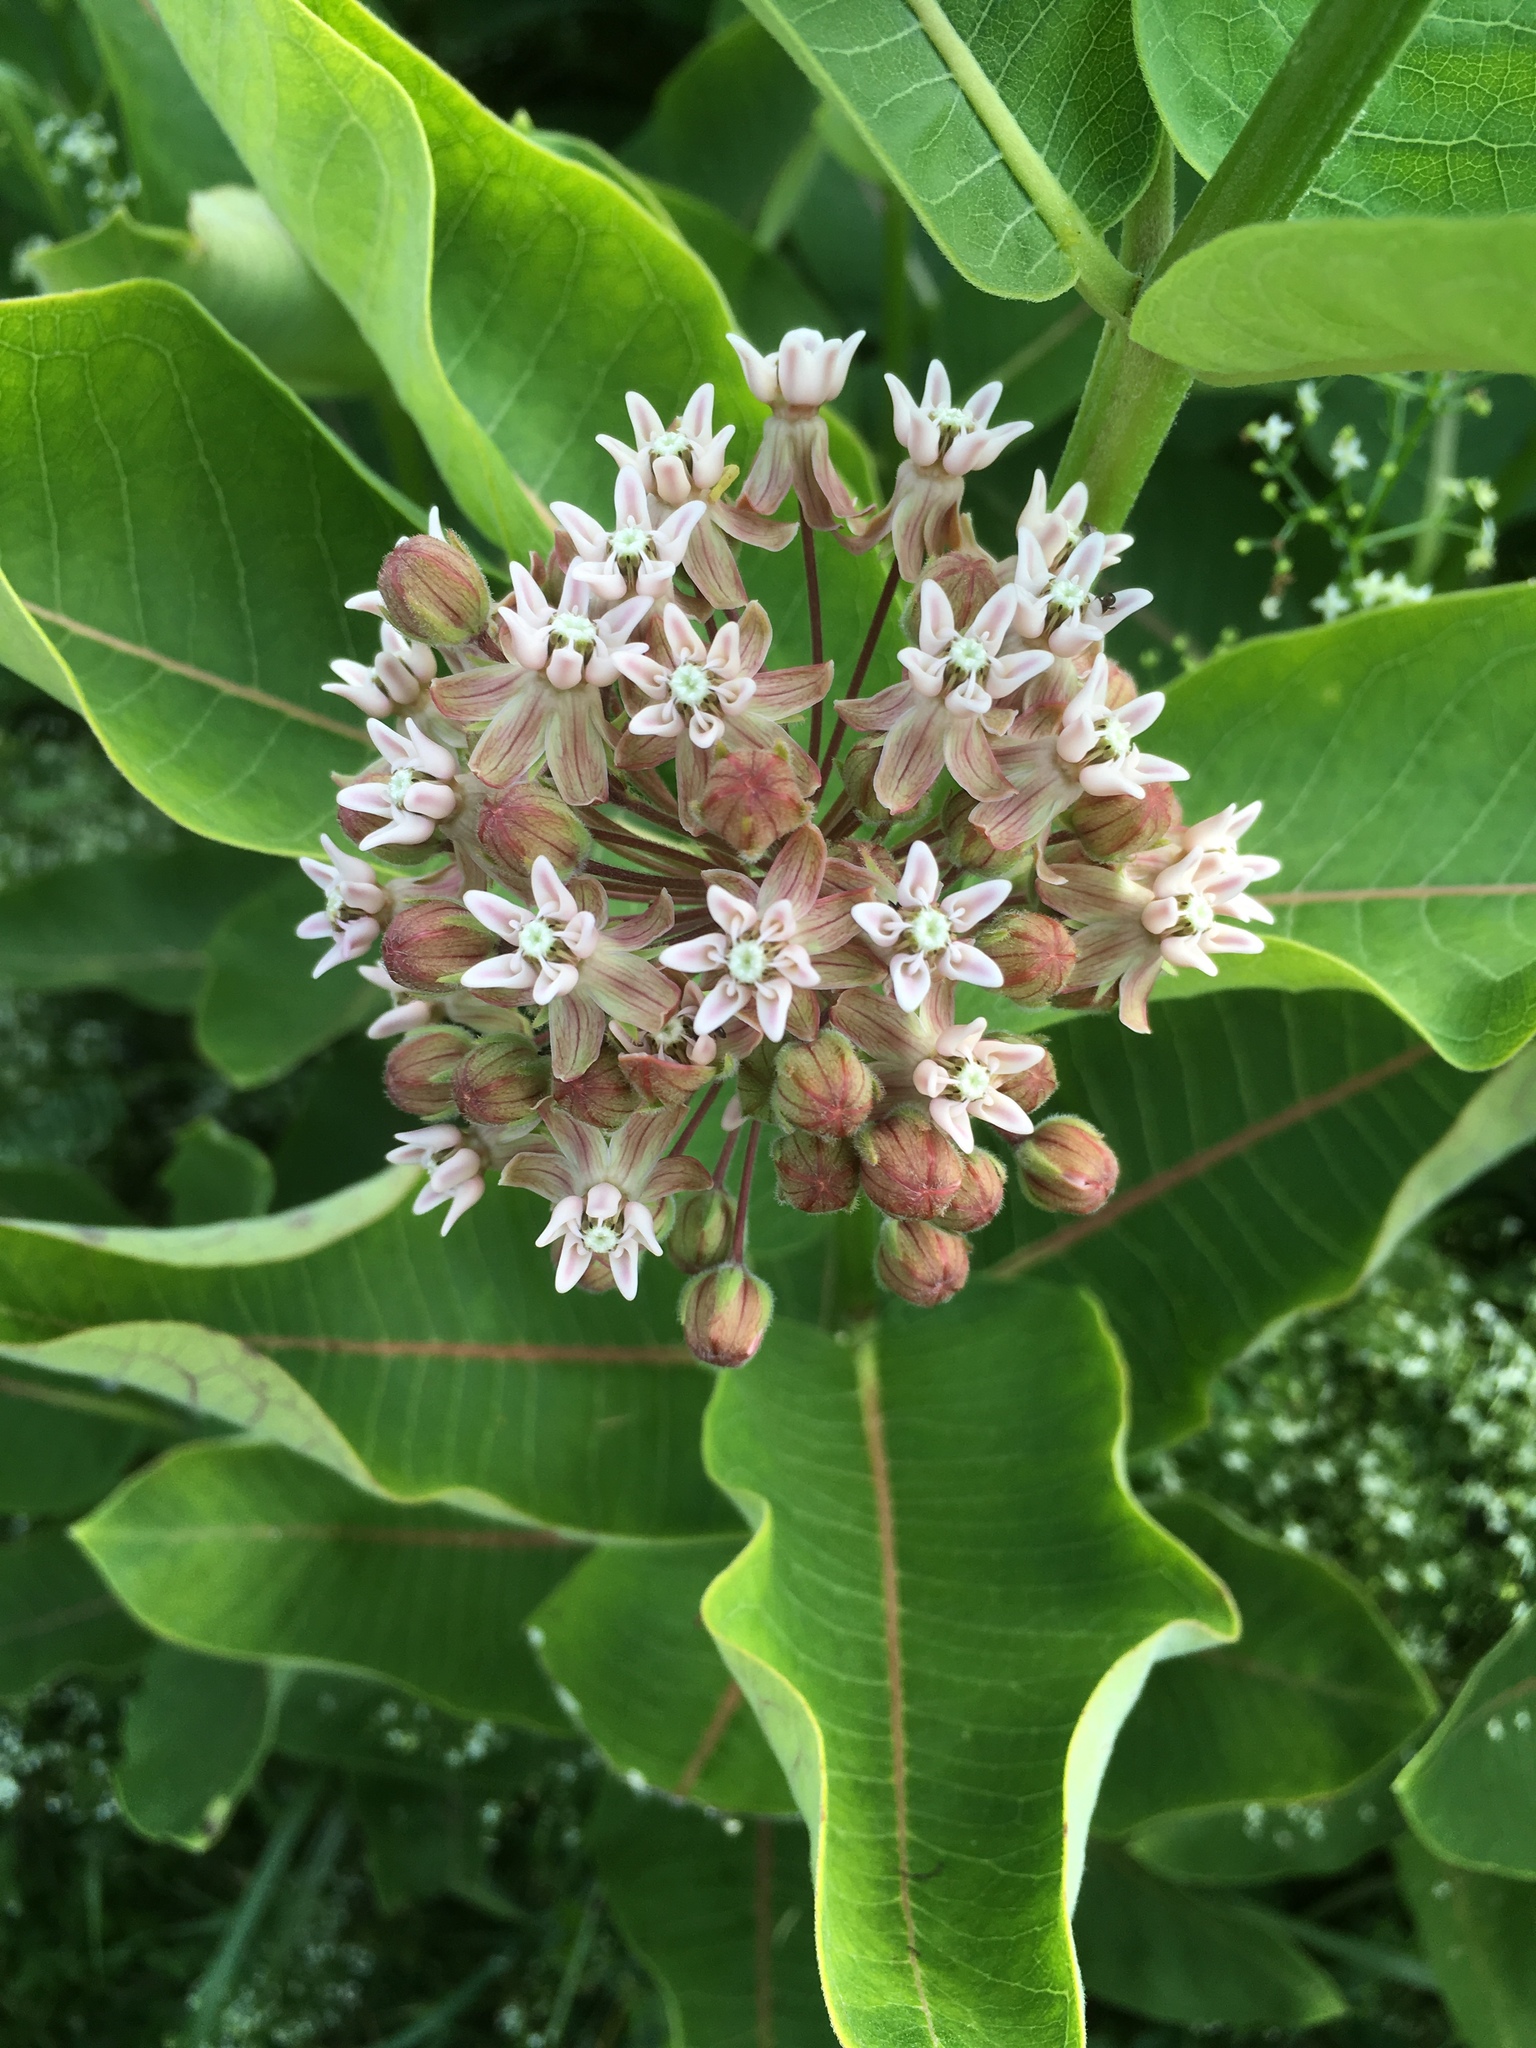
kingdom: Plantae
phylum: Tracheophyta
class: Magnoliopsida
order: Gentianales
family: Apocynaceae
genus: Asclepias
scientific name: Asclepias syriaca
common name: Common milkweed
